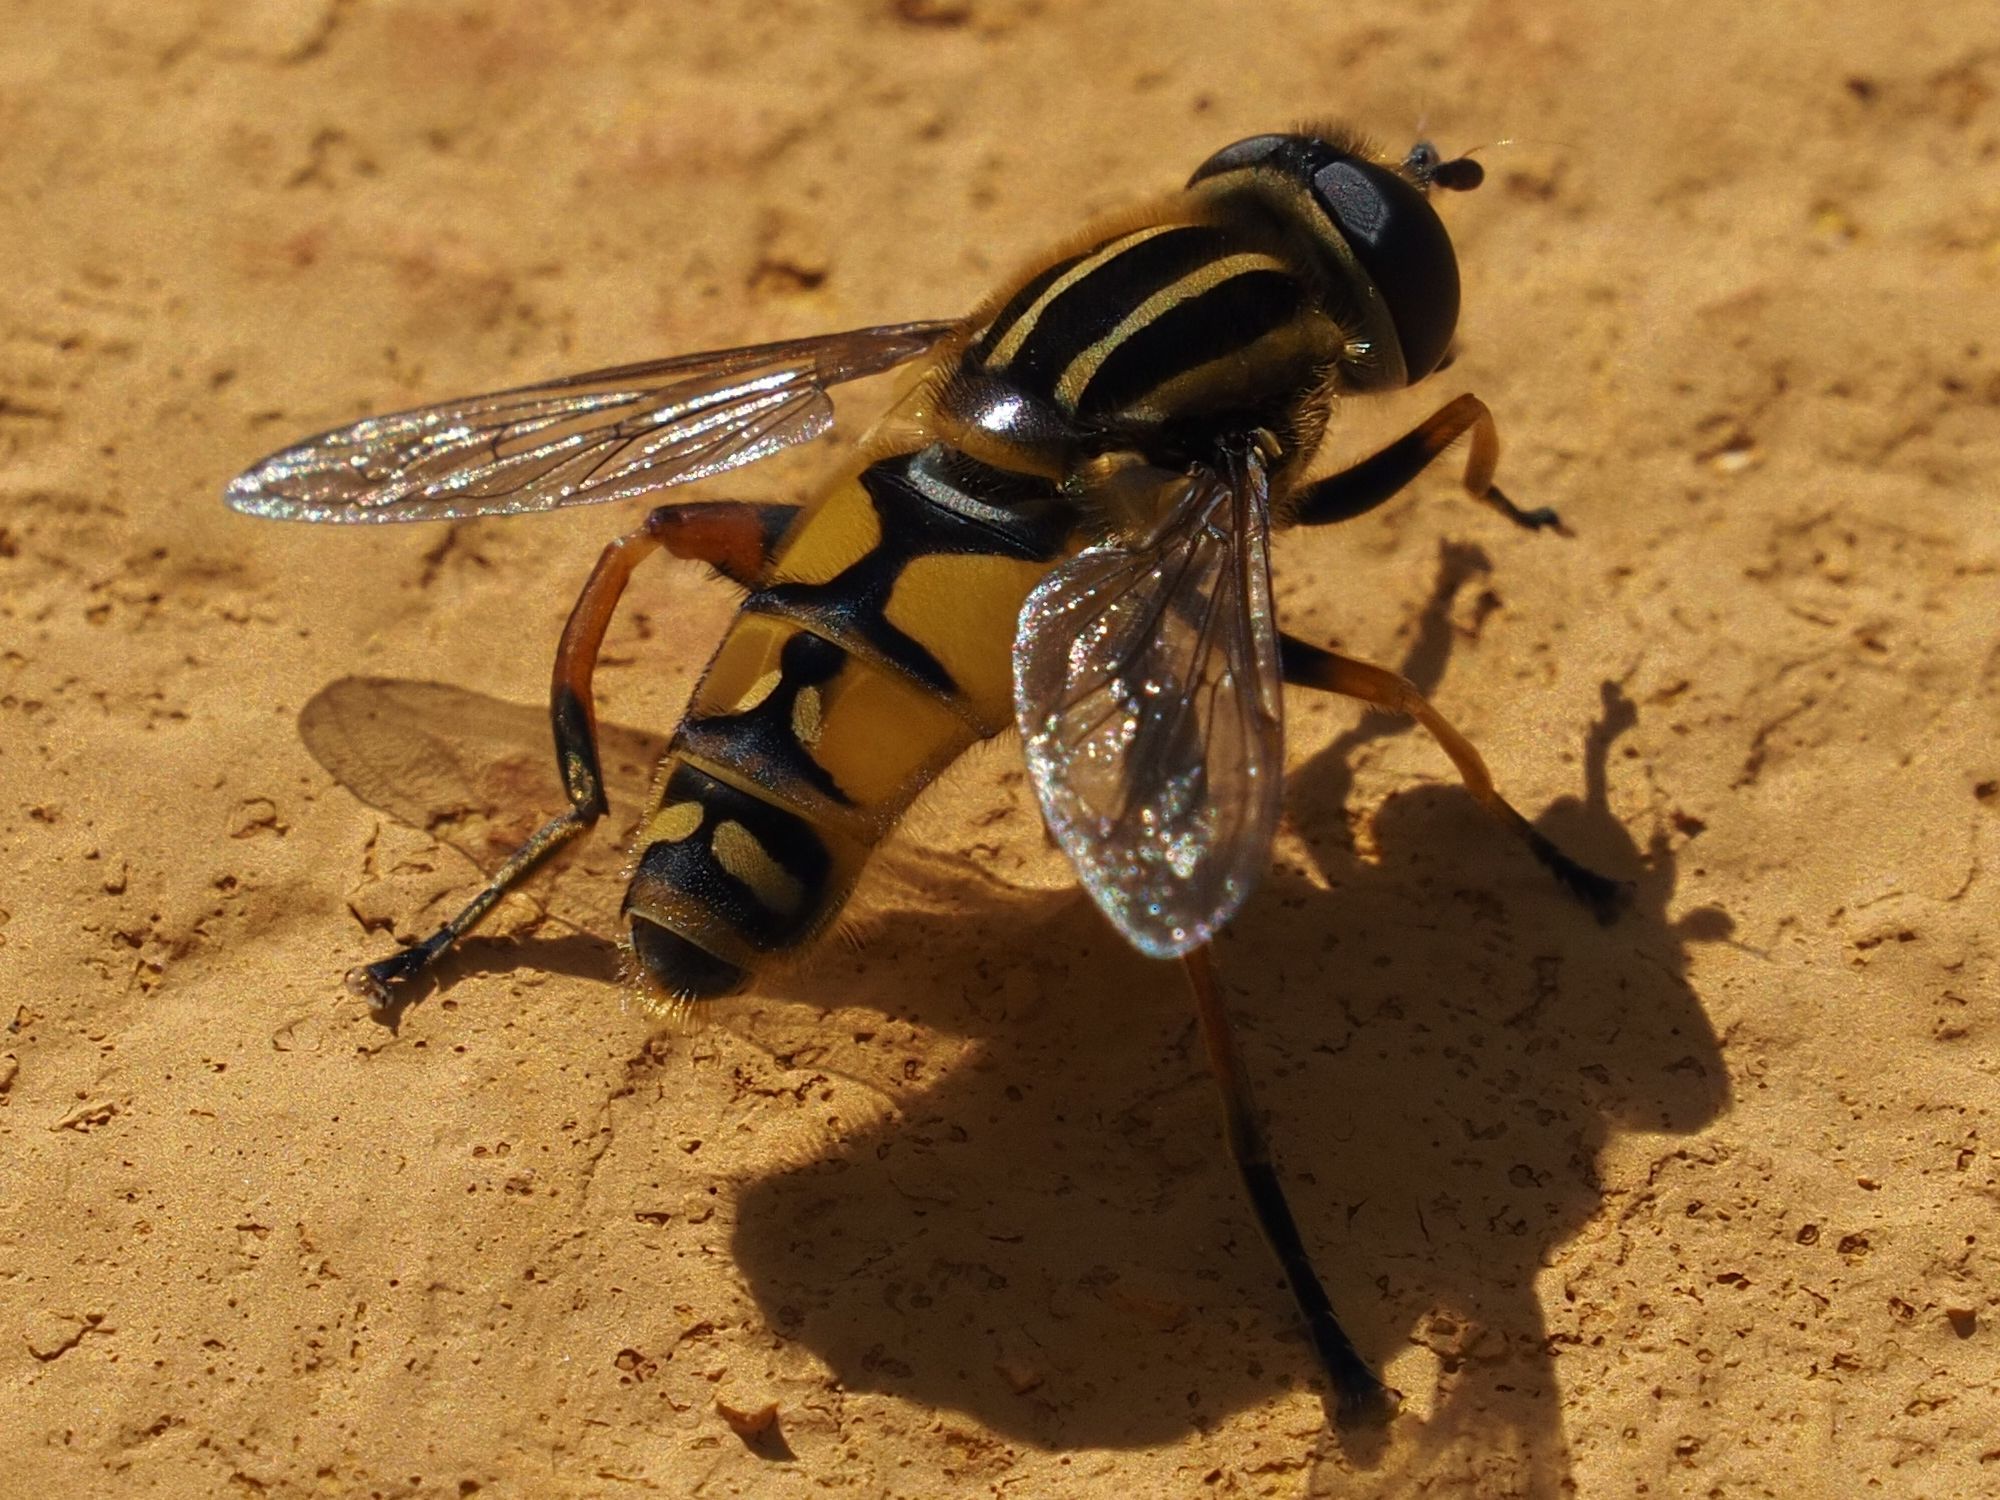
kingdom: Animalia
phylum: Arthropoda
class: Insecta
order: Diptera
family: Syrphidae
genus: Helophilus
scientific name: Helophilus pendulus
